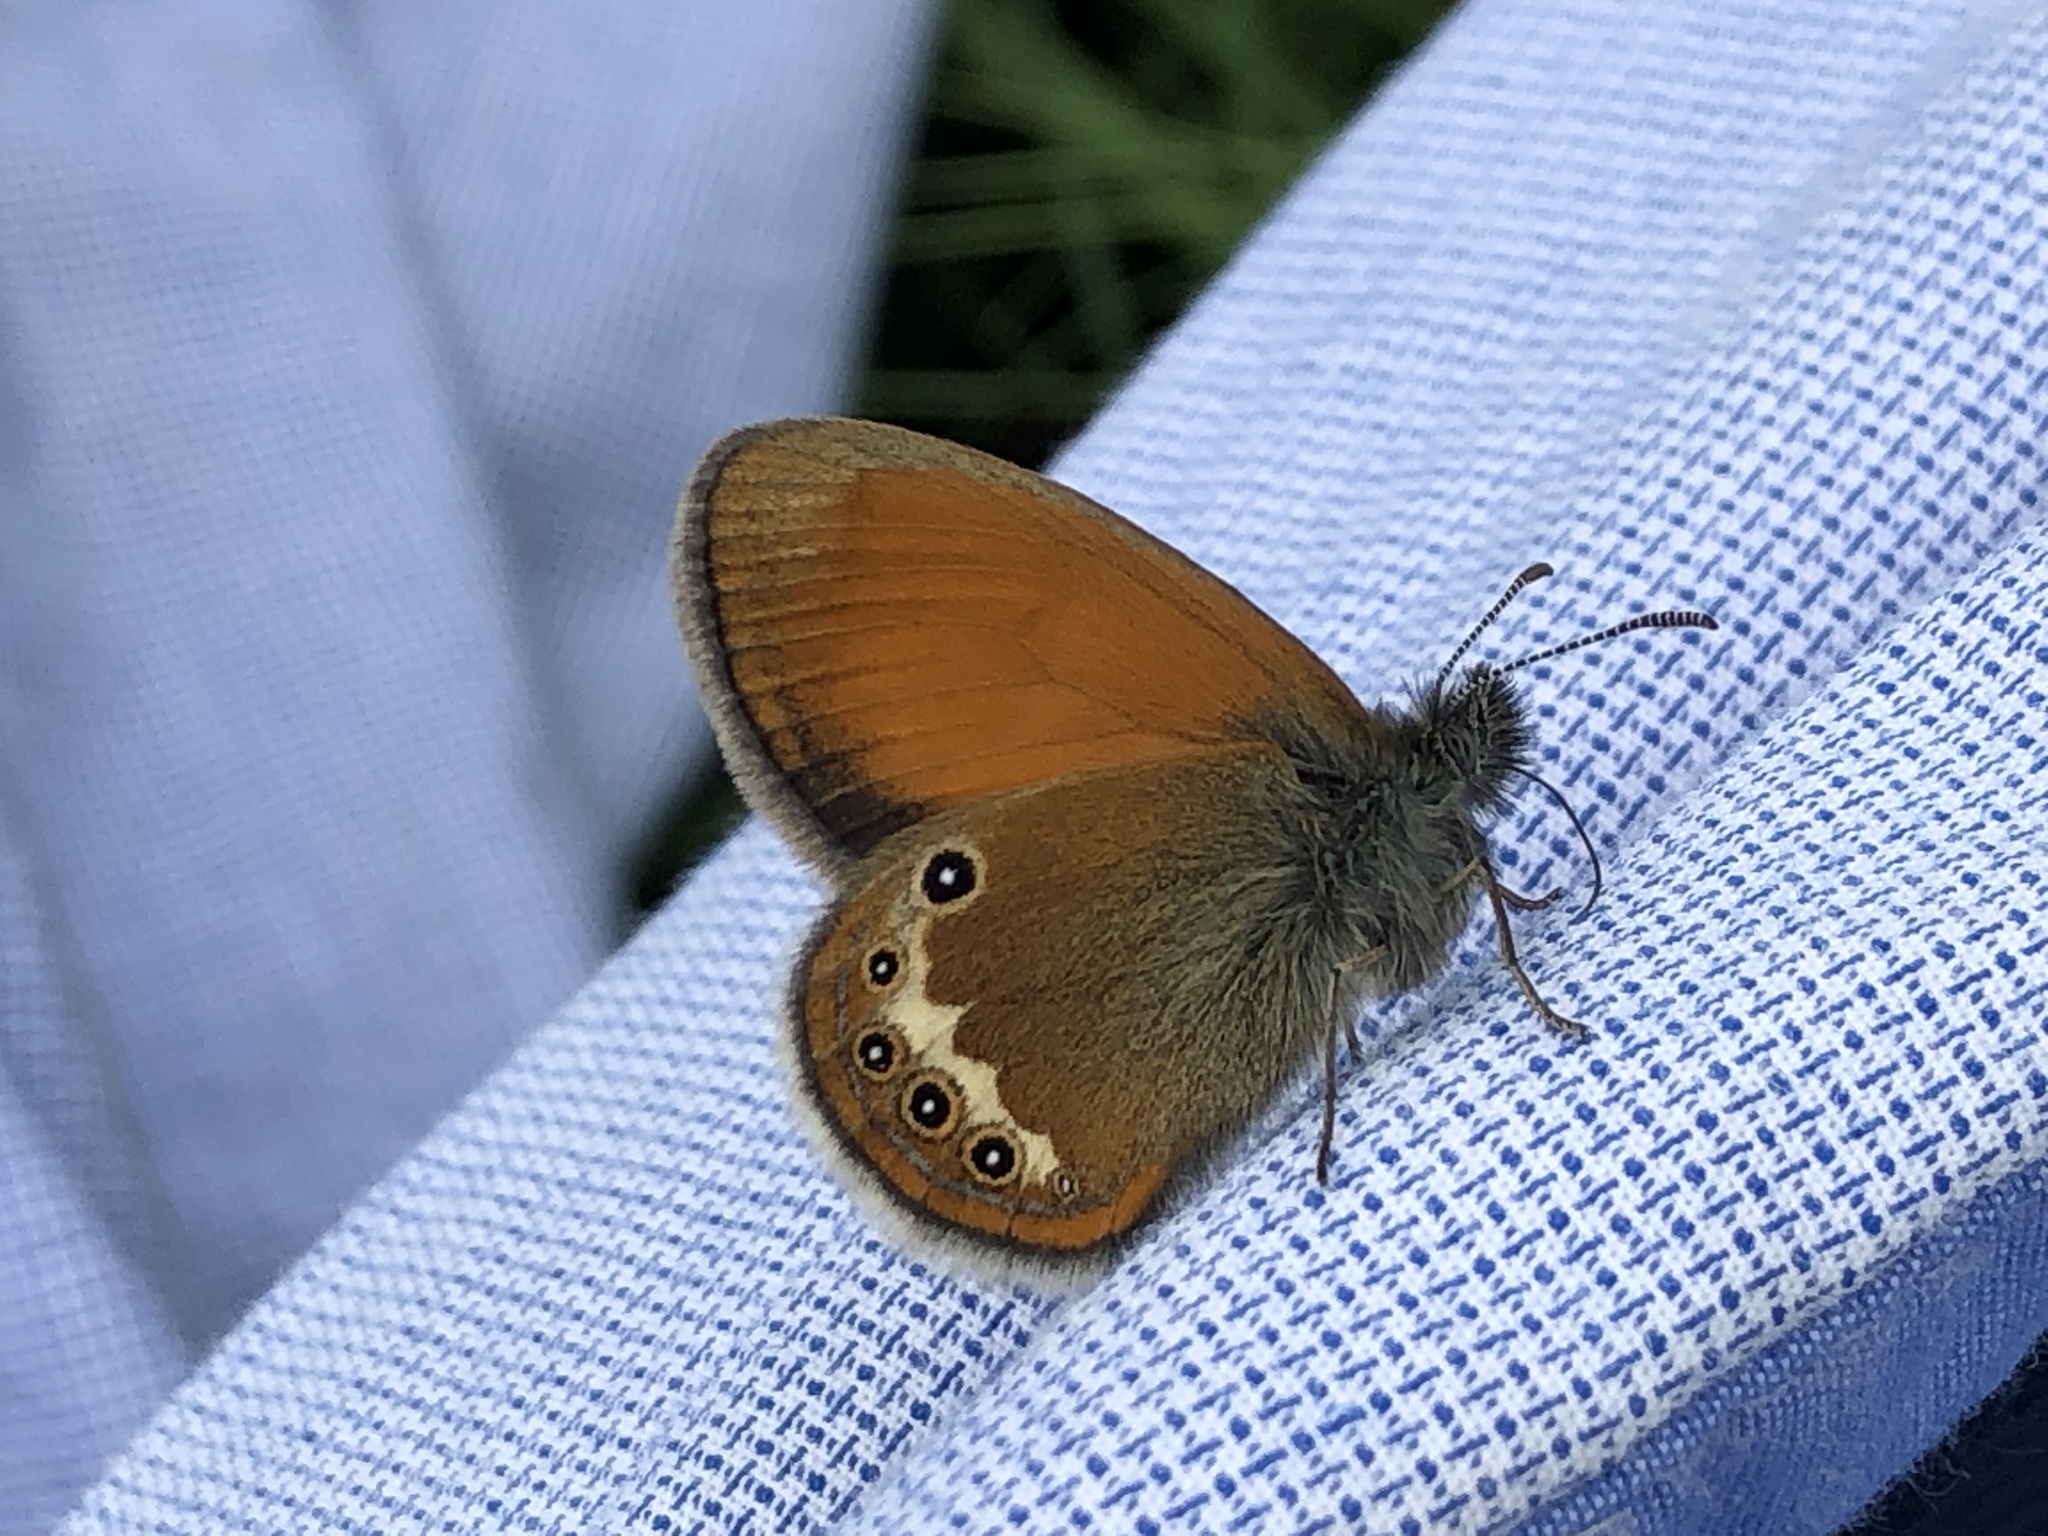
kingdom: Animalia
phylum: Arthropoda
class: Insecta
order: Lepidoptera
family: Nymphalidae
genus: Coenonympha
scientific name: Coenonympha arcania
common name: Pearly heath
